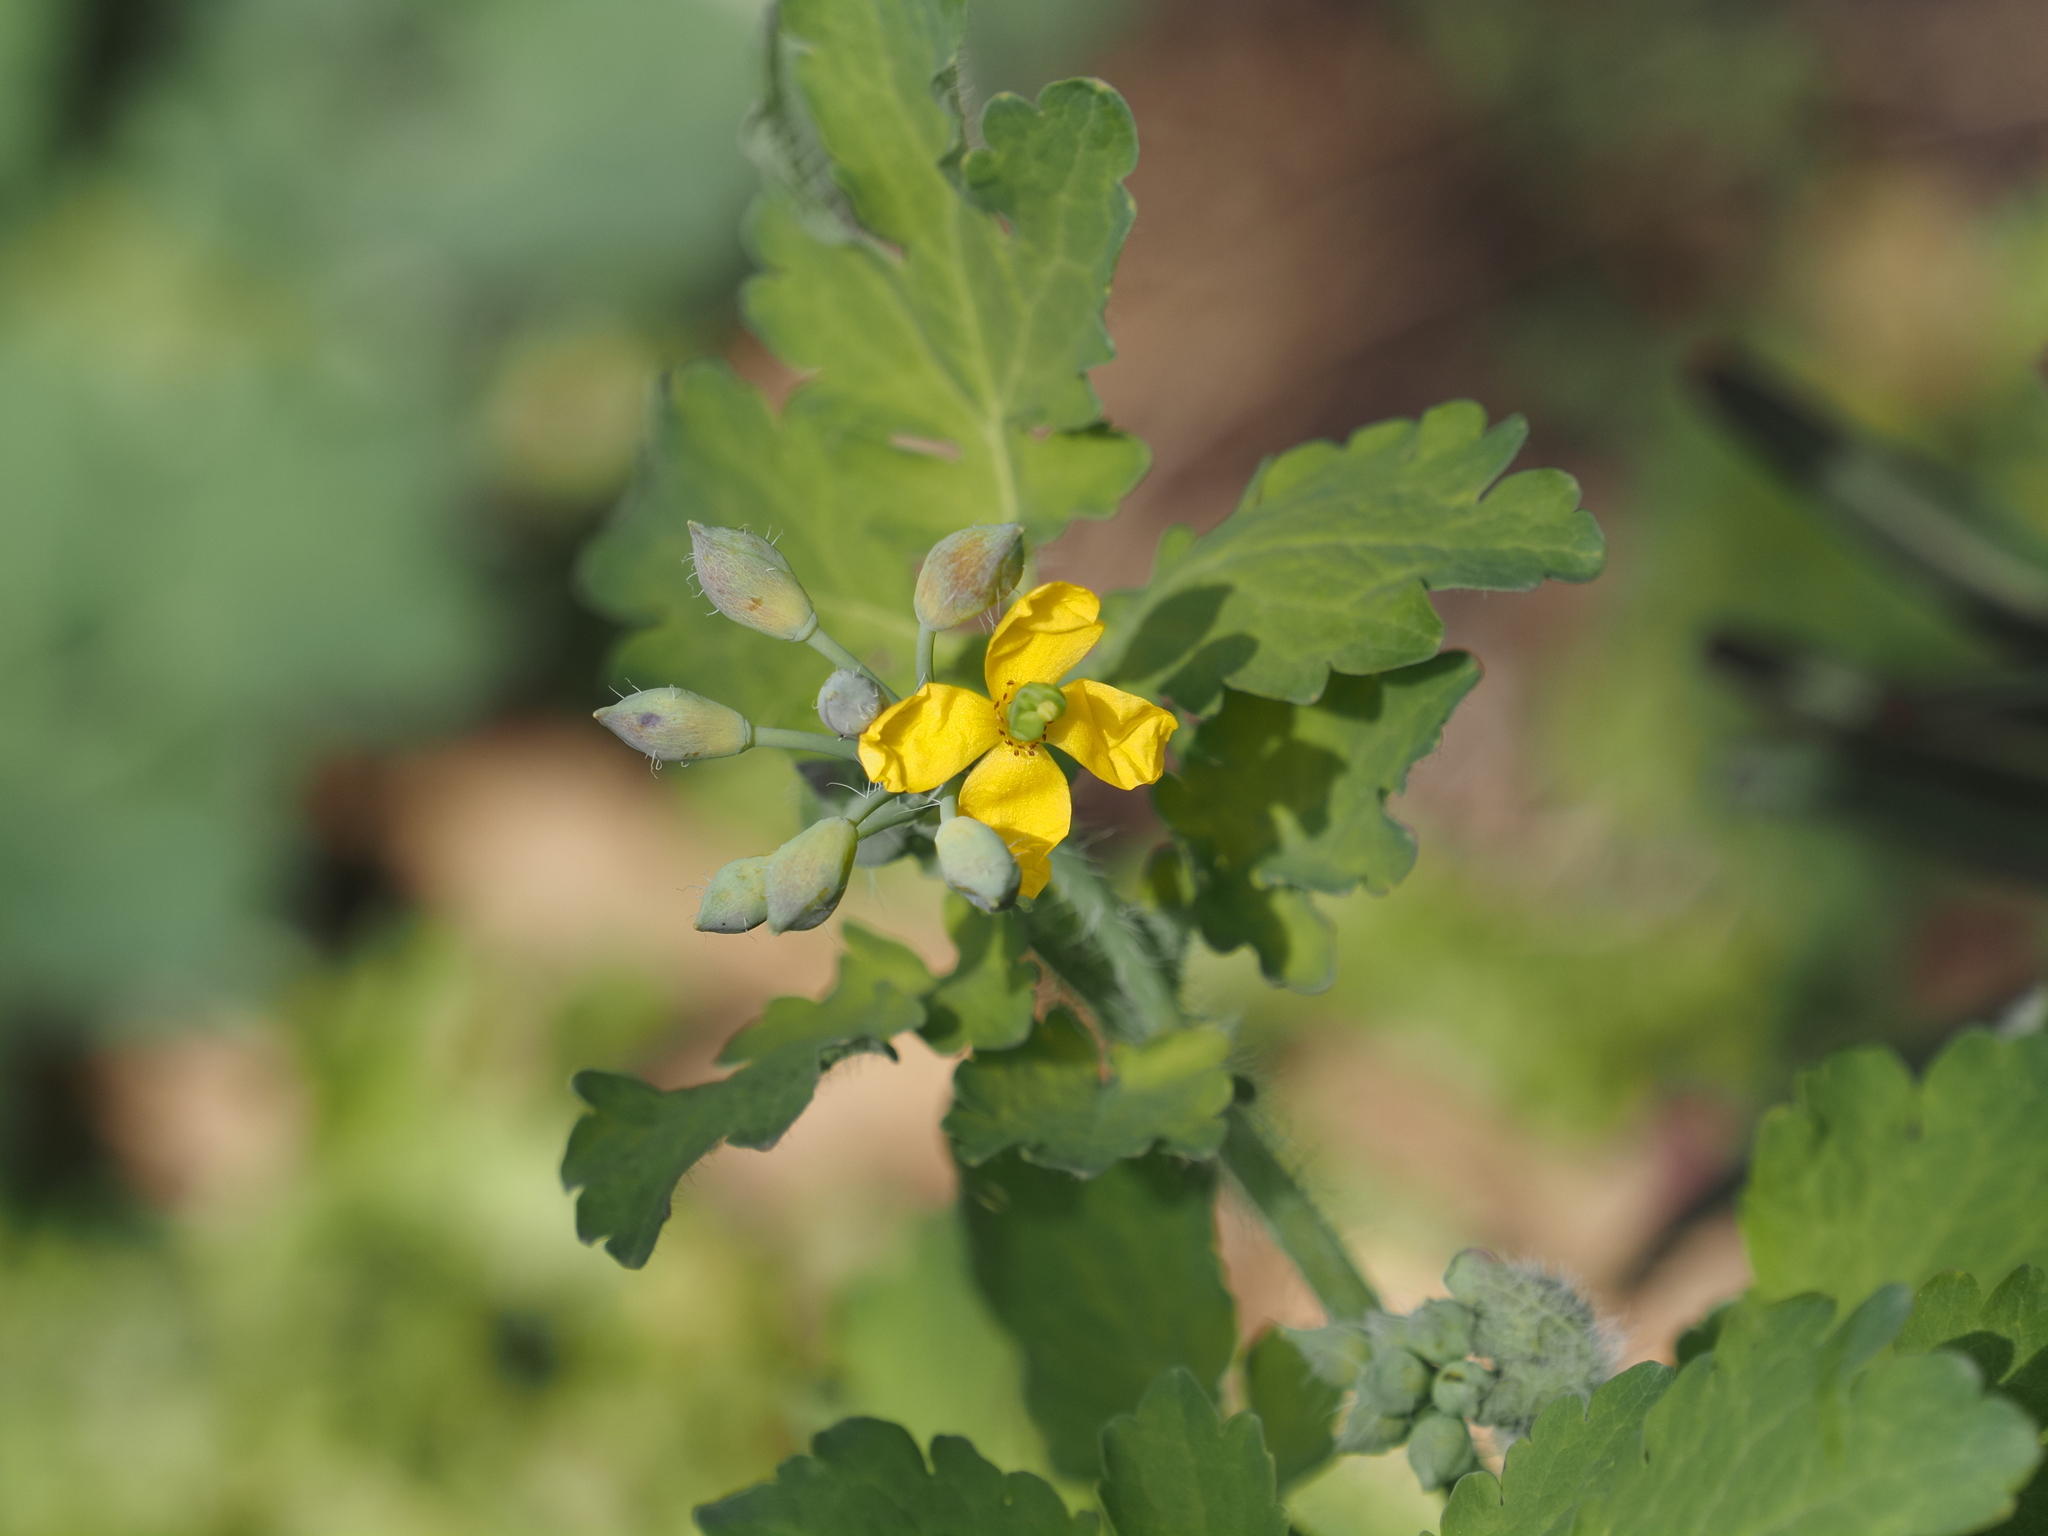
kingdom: Plantae
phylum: Tracheophyta
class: Magnoliopsida
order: Ranunculales
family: Papaveraceae
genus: Chelidonium
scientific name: Chelidonium majus
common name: Greater celandine
